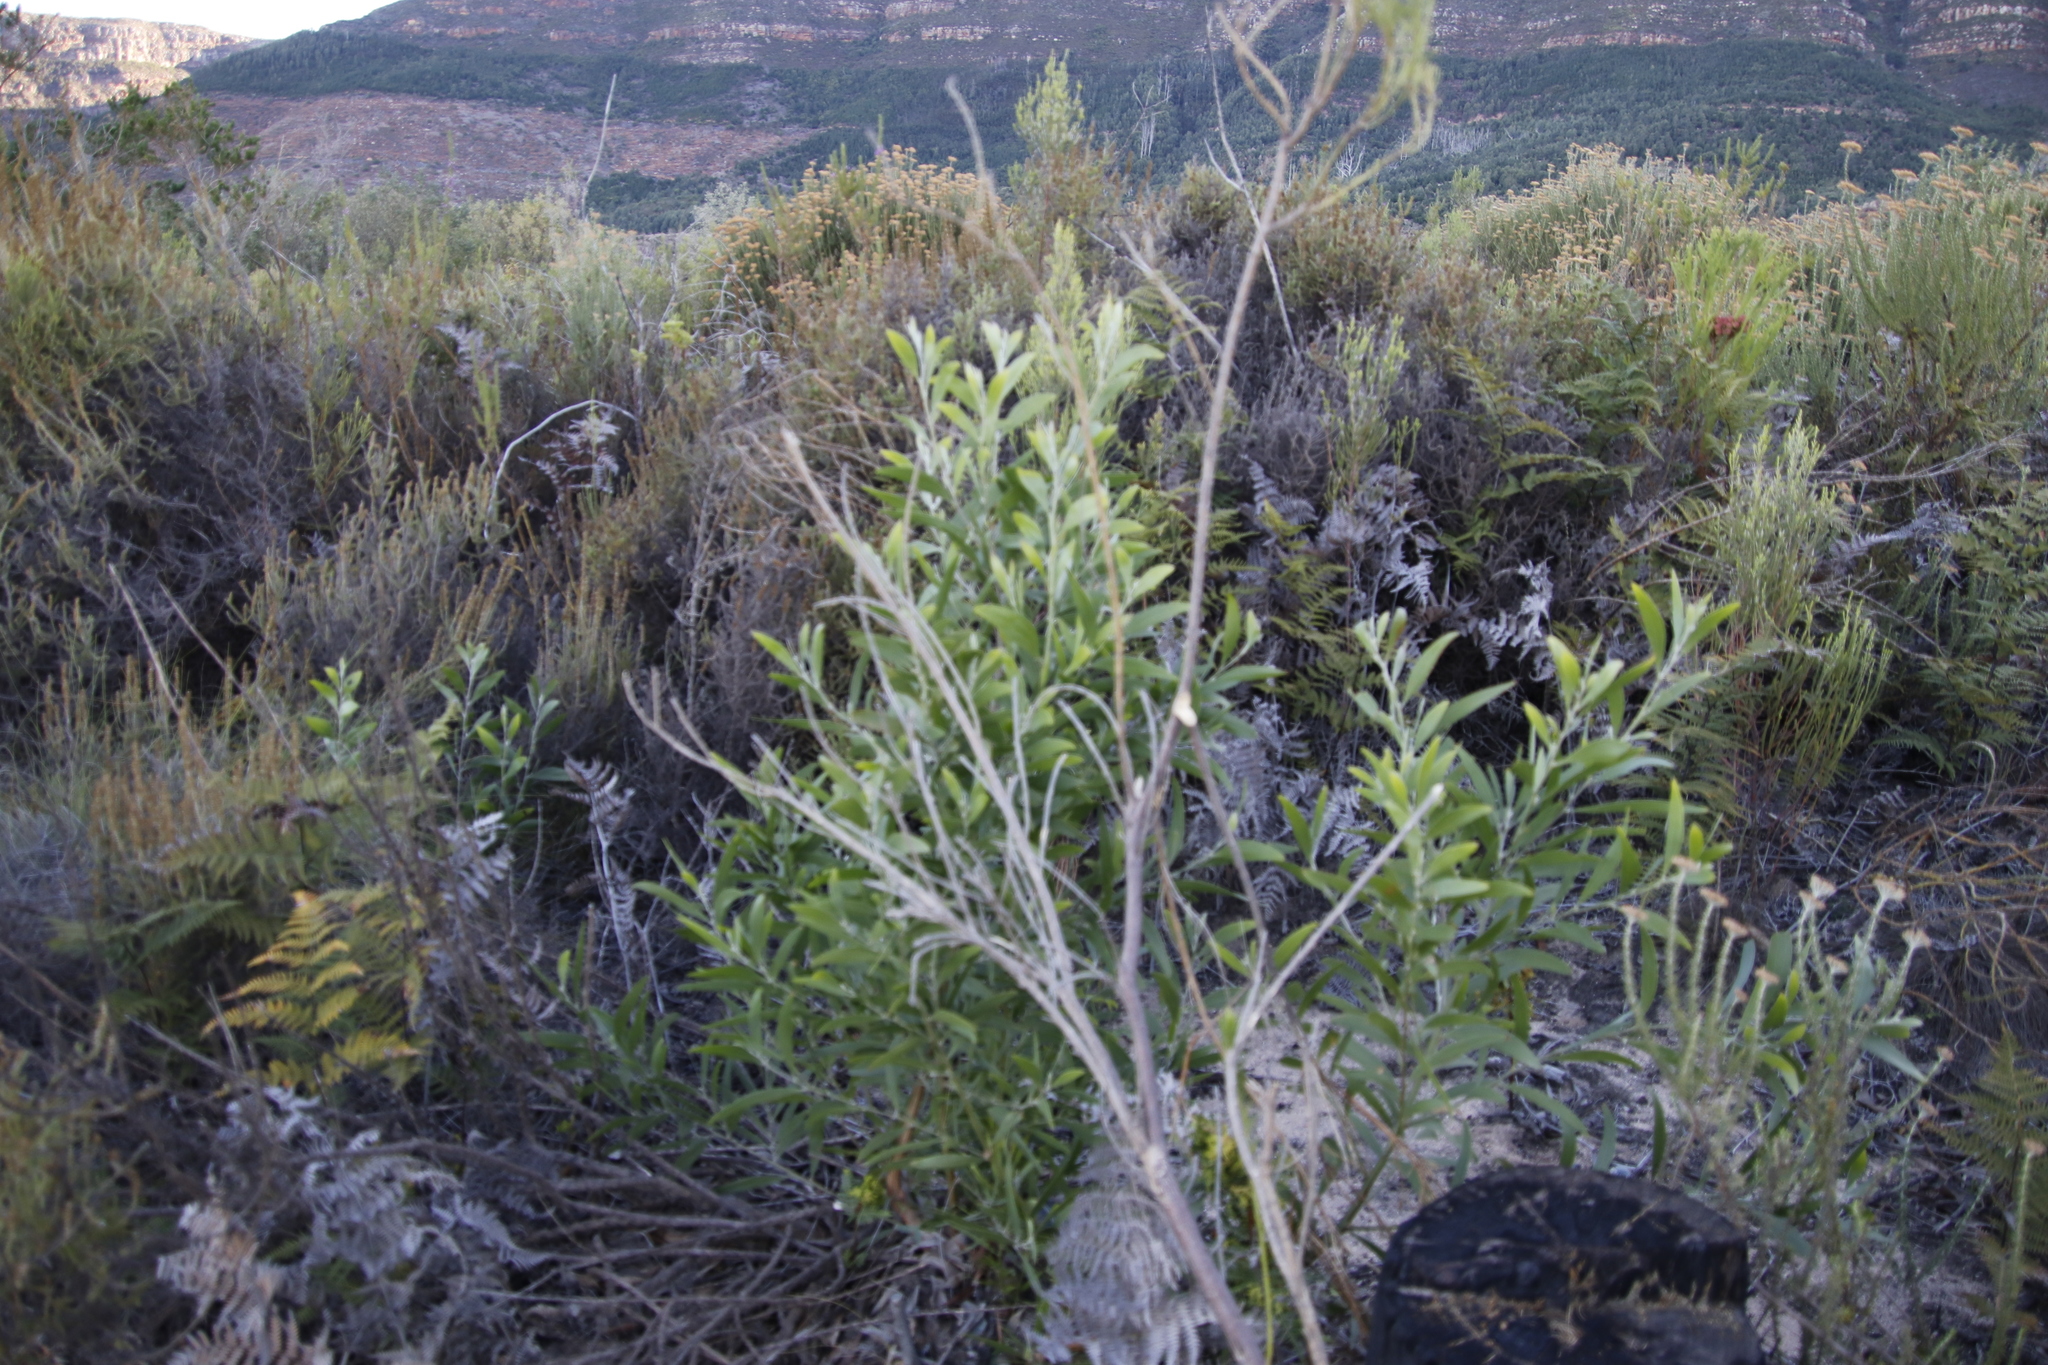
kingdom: Plantae
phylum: Tracheophyta
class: Magnoliopsida
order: Fabales
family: Fabaceae
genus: Acacia
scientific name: Acacia melanoxylon
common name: Blackwood
